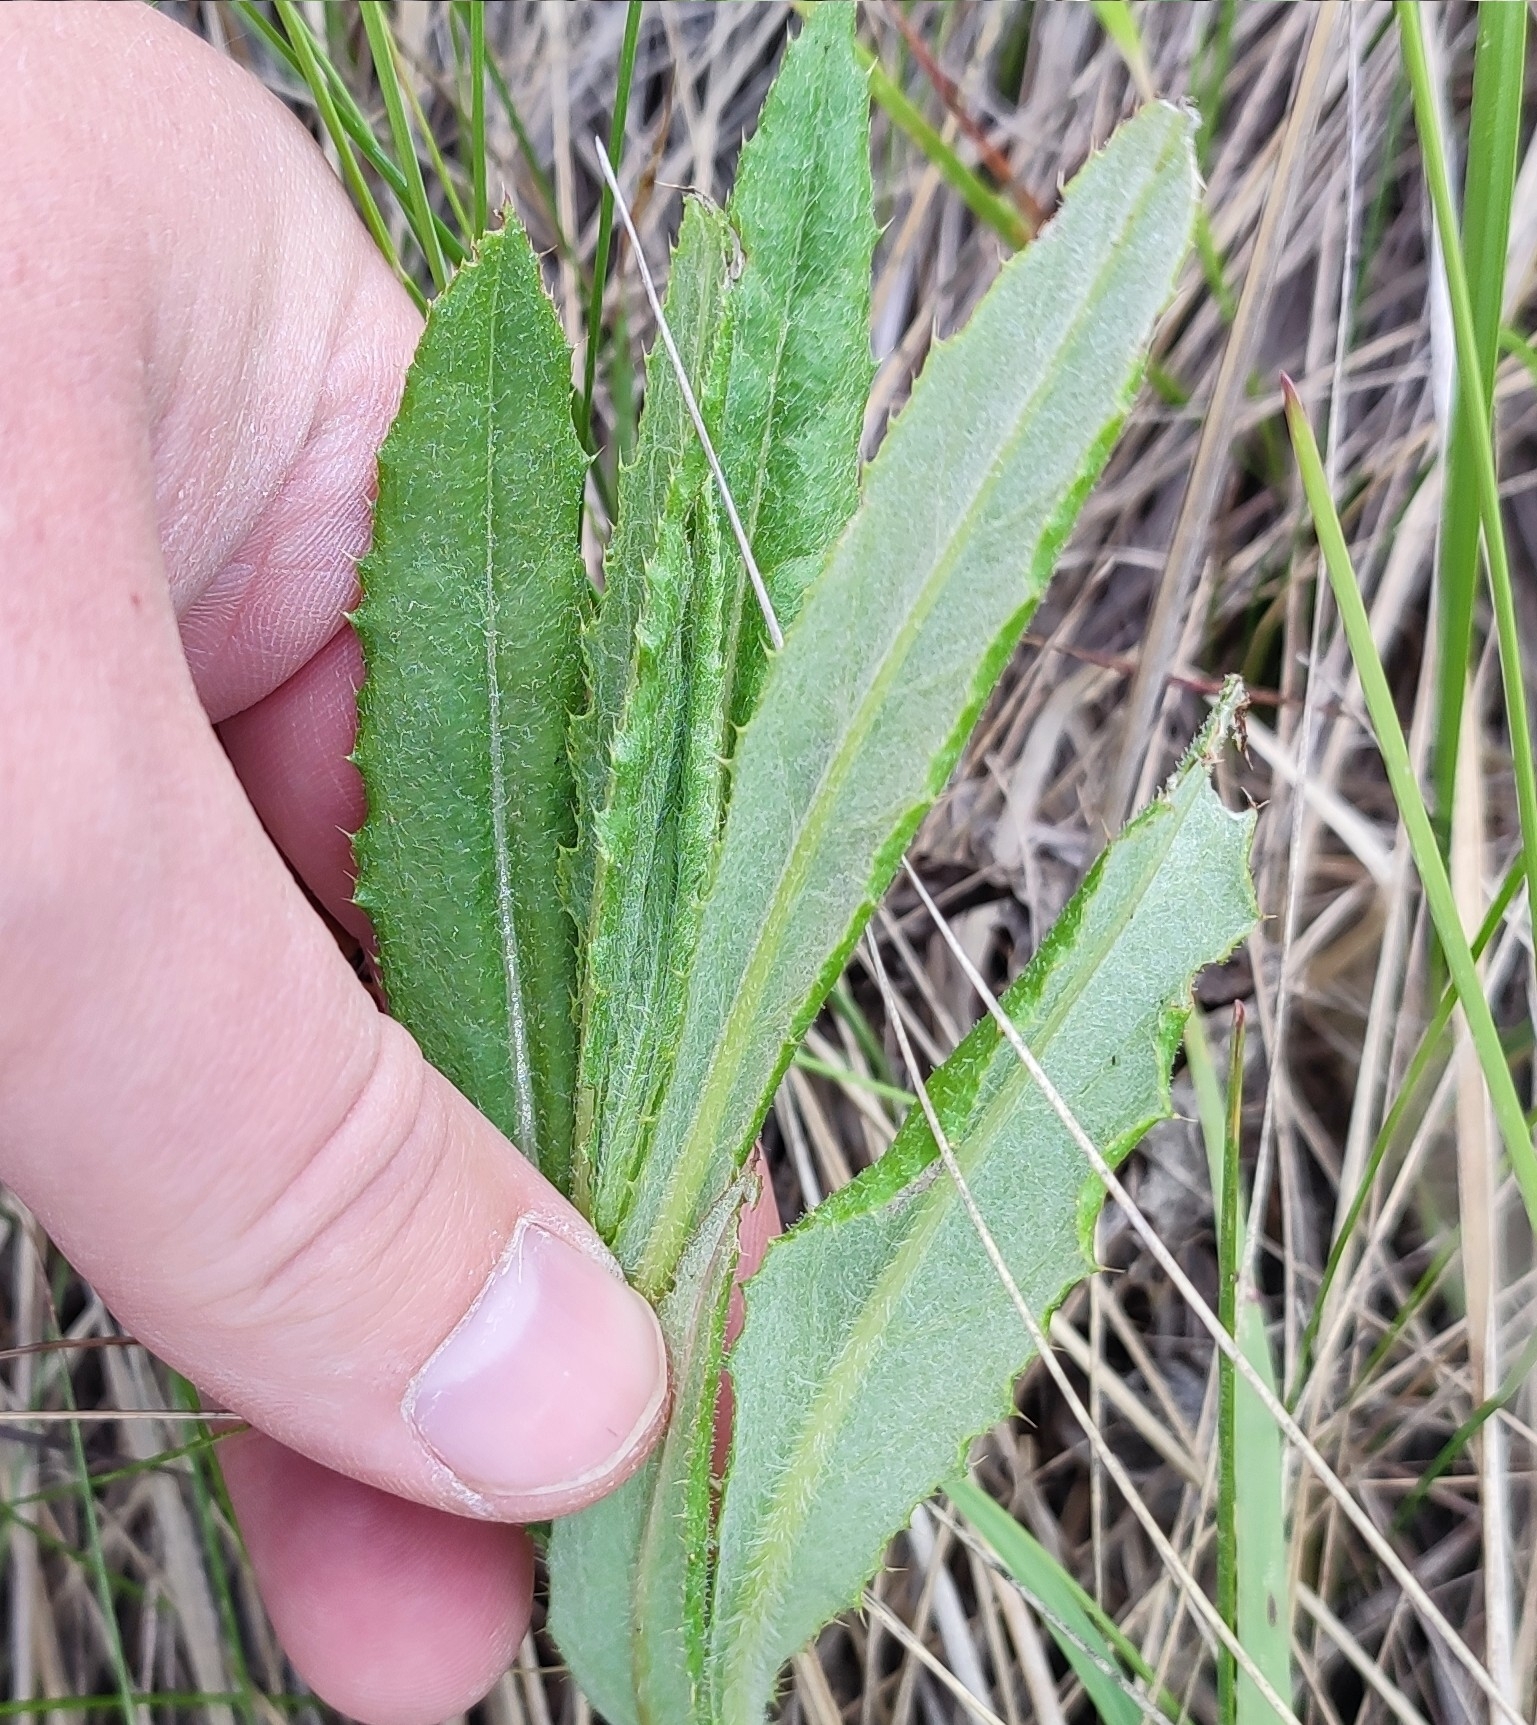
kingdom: Plantae
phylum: Tracheophyta
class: Magnoliopsida
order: Asterales
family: Asteraceae
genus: Cirsium
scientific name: Cirsium arvense
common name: Creeping thistle
